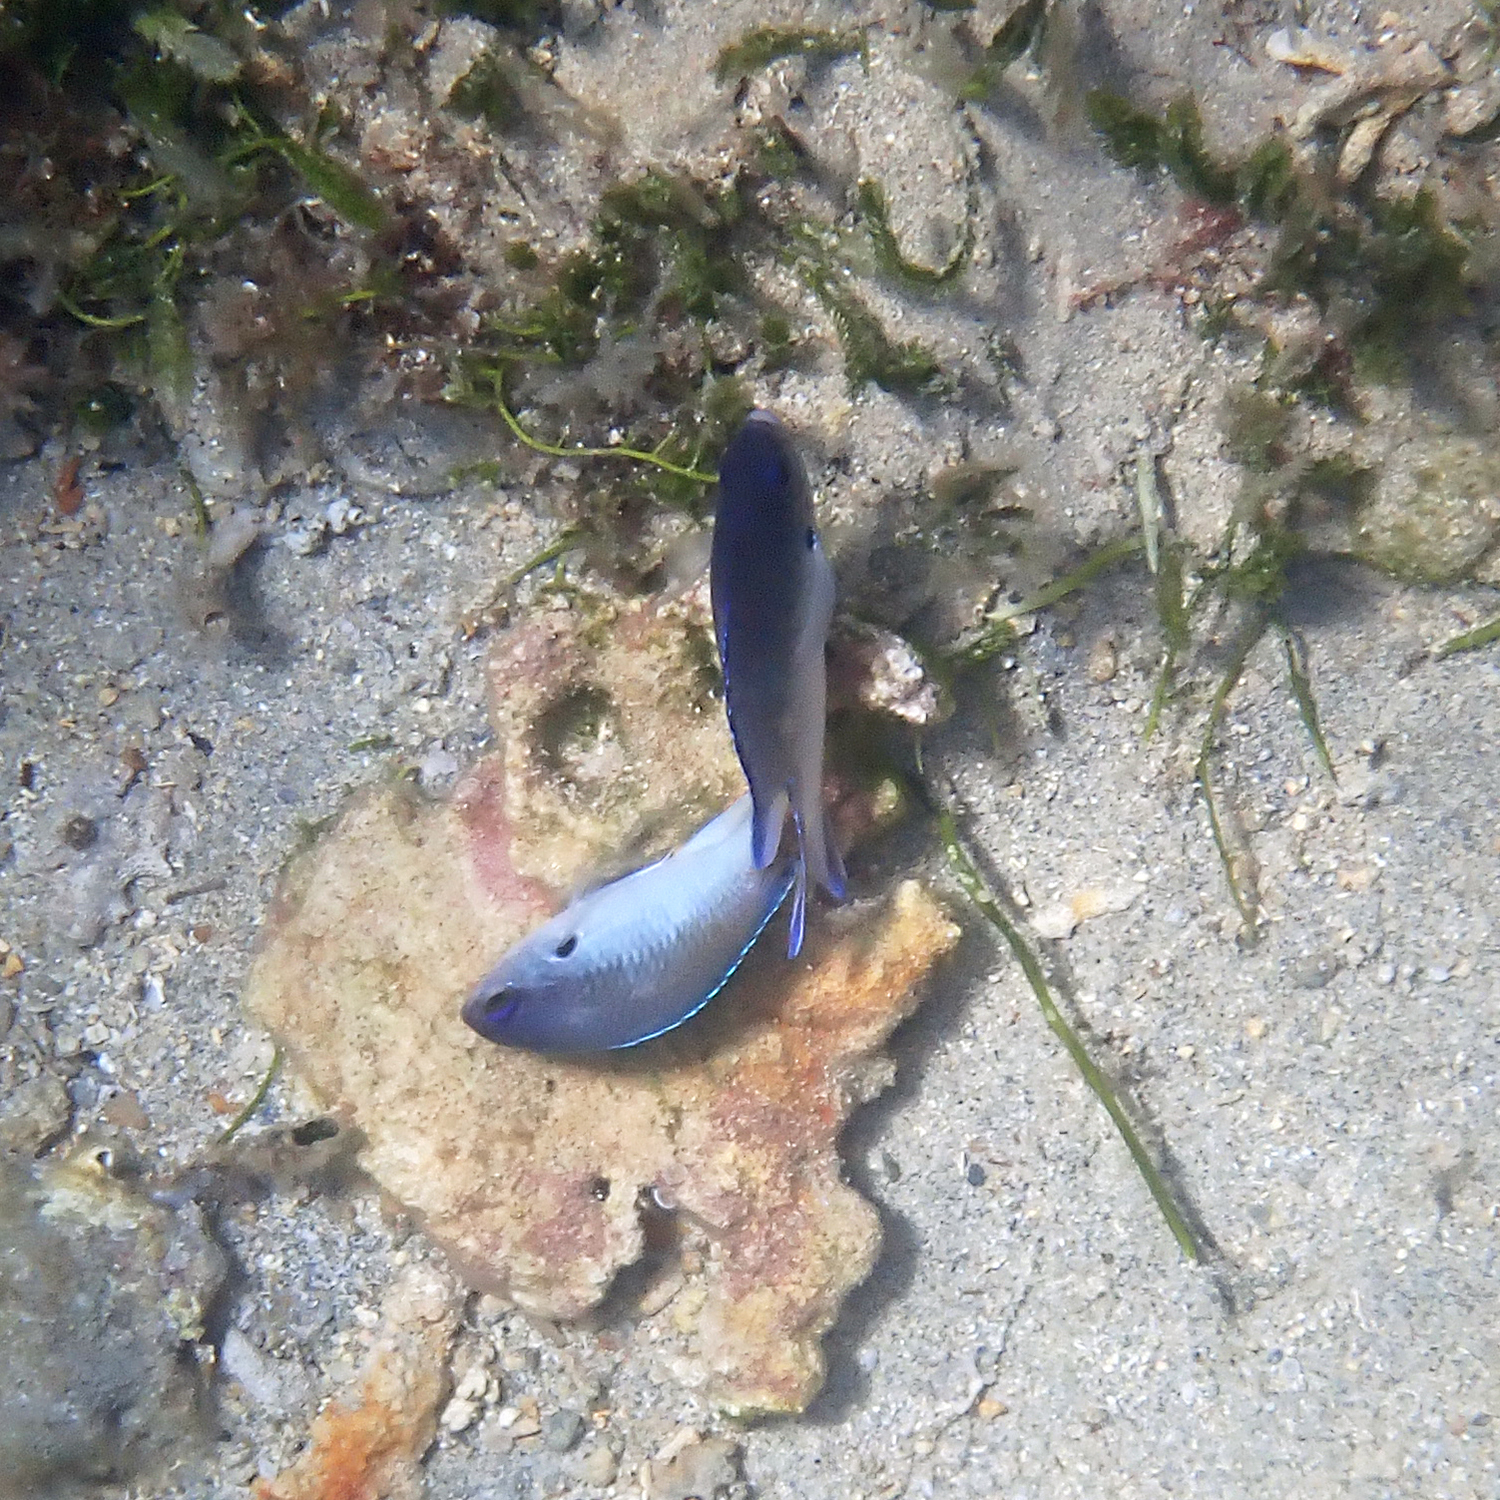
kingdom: Animalia
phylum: Chordata
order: Perciformes
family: Pomacentridae
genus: Chromis
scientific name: Chromis norfolkensis
